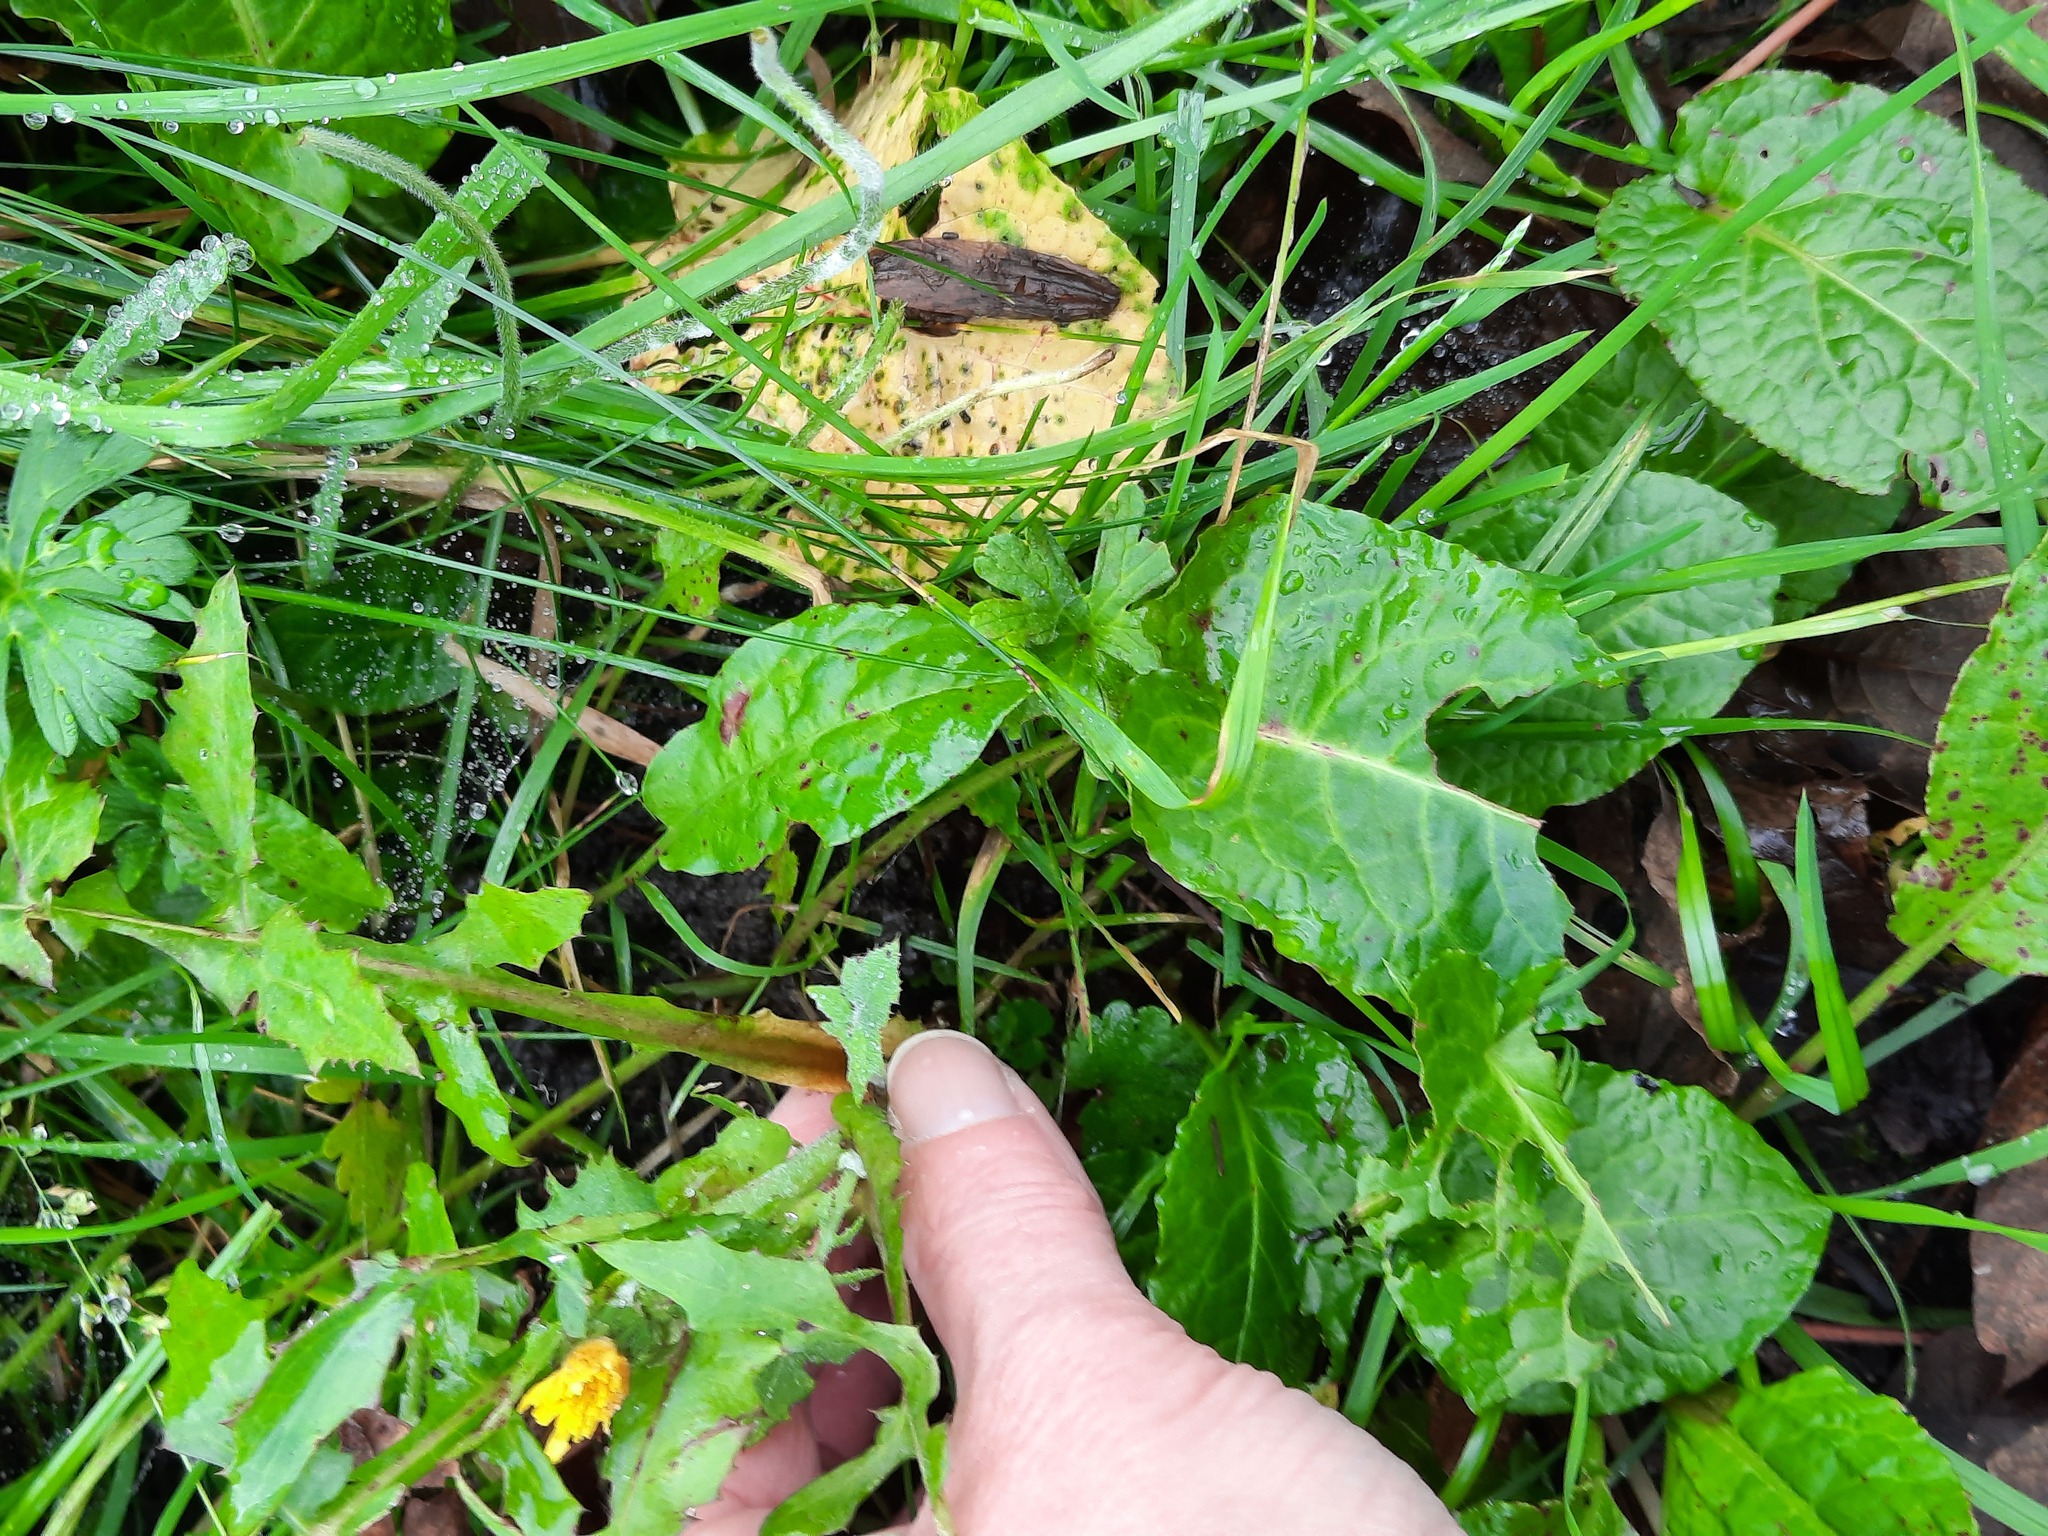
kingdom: Plantae
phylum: Tracheophyta
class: Magnoliopsida
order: Asterales
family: Asteraceae
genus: Sonchus
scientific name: Sonchus oleraceus
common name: Common sowthistle
